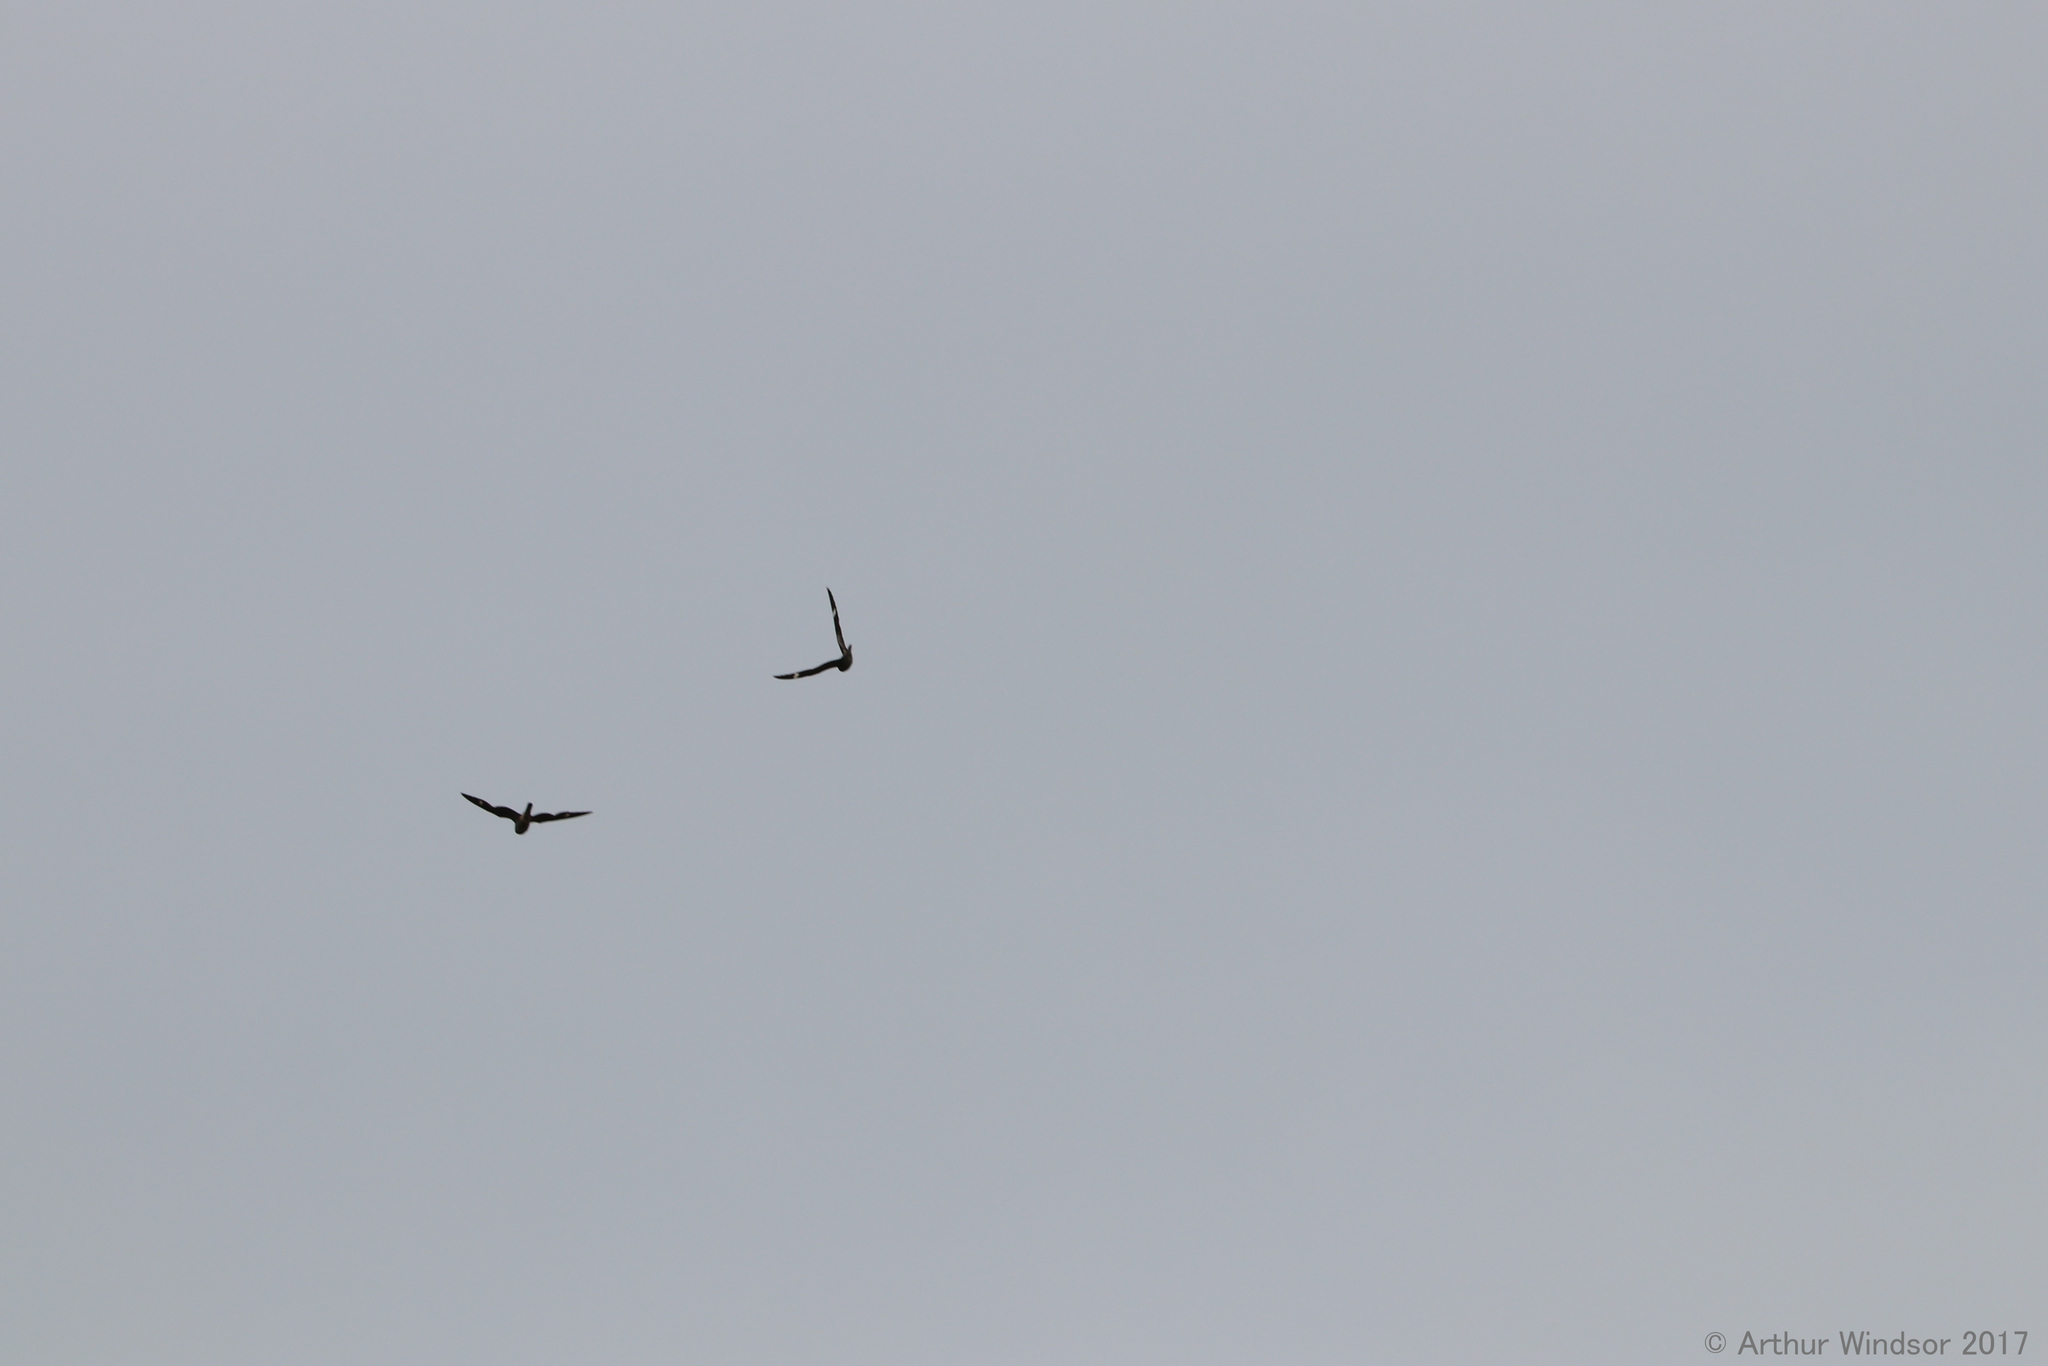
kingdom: Animalia
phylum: Chordata
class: Aves
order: Caprimulgiformes
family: Caprimulgidae
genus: Chordeiles
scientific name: Chordeiles minor
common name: Common nighthawk
